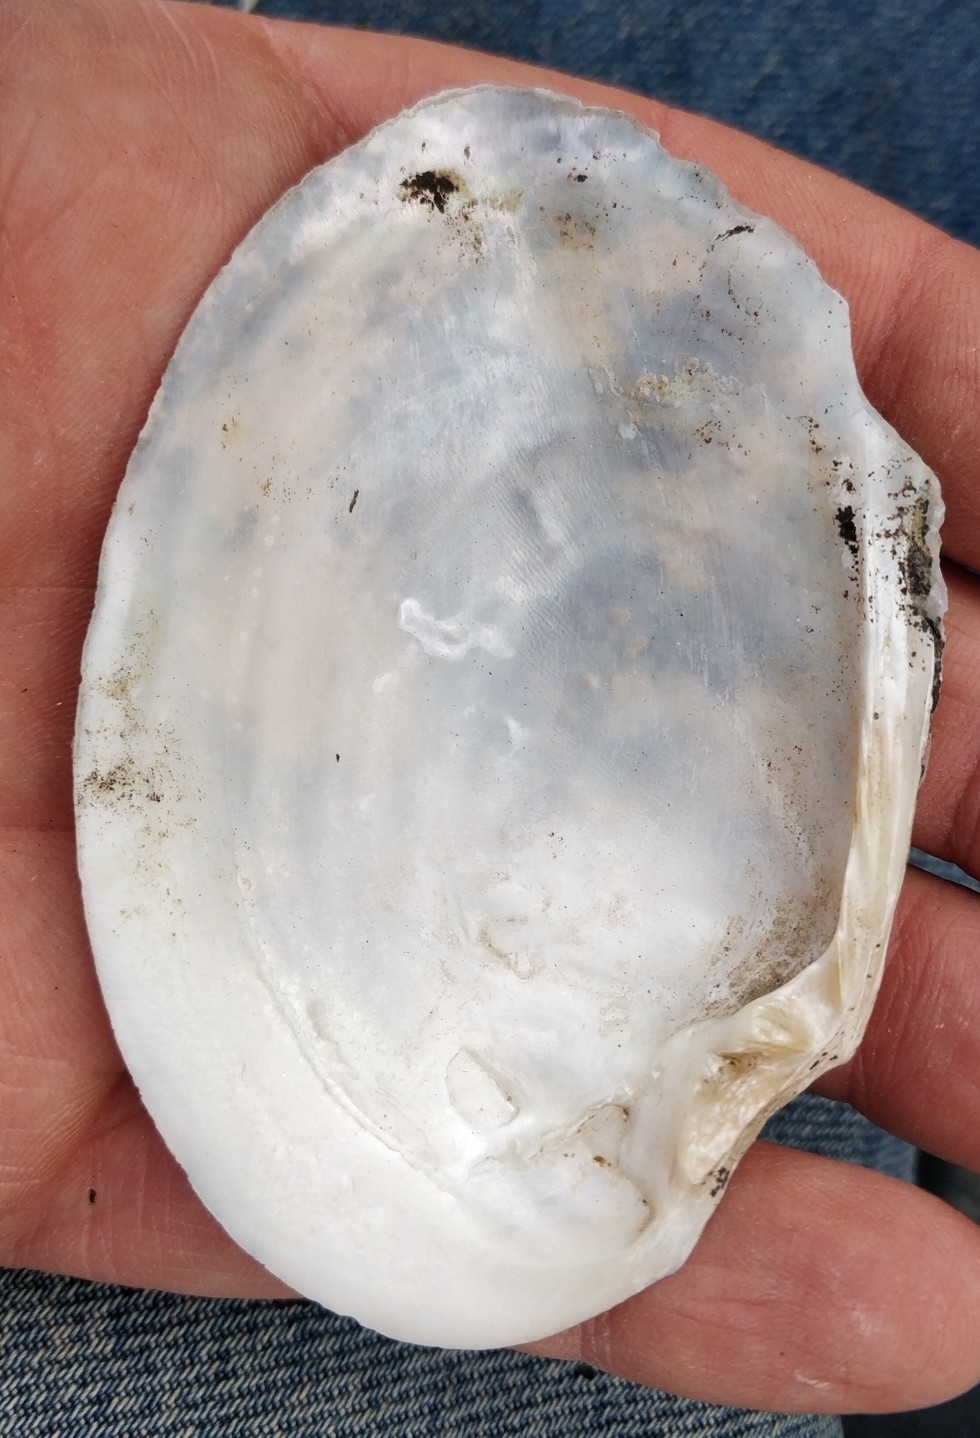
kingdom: Animalia
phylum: Mollusca
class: Bivalvia
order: Unionida
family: Unionidae
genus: Lasmigona
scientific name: Lasmigona complanata
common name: White heelsplitter
